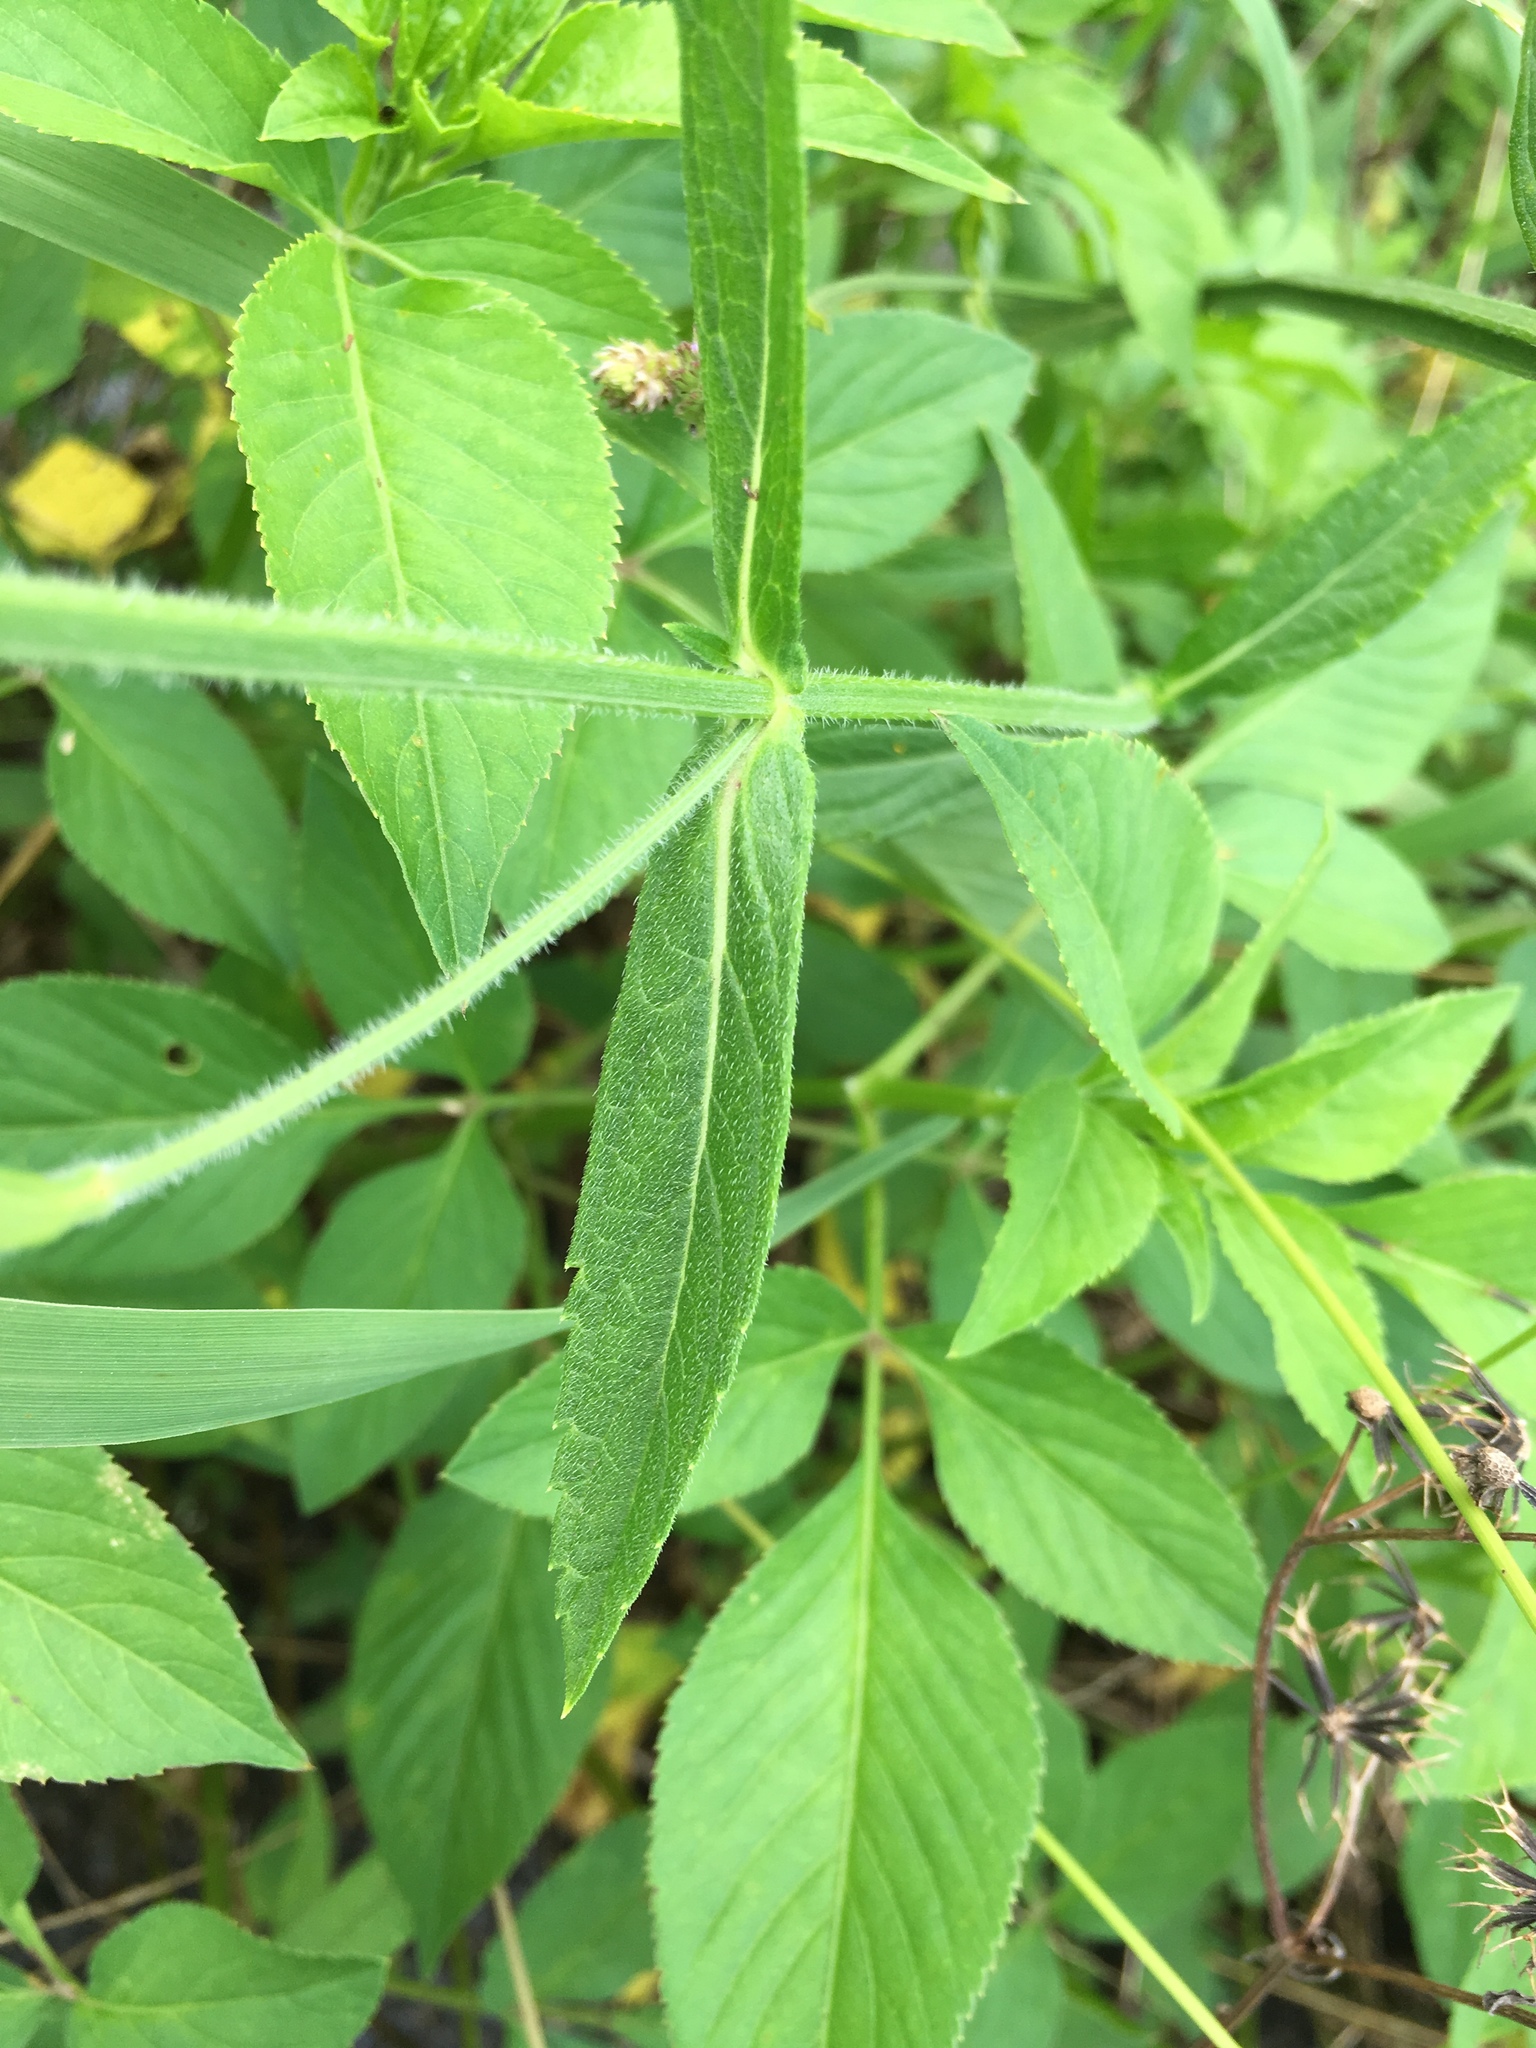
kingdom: Plantae
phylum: Tracheophyta
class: Magnoliopsida
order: Lamiales
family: Verbenaceae
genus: Verbena
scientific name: Verbena bonariensis
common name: Purpletop vervain
